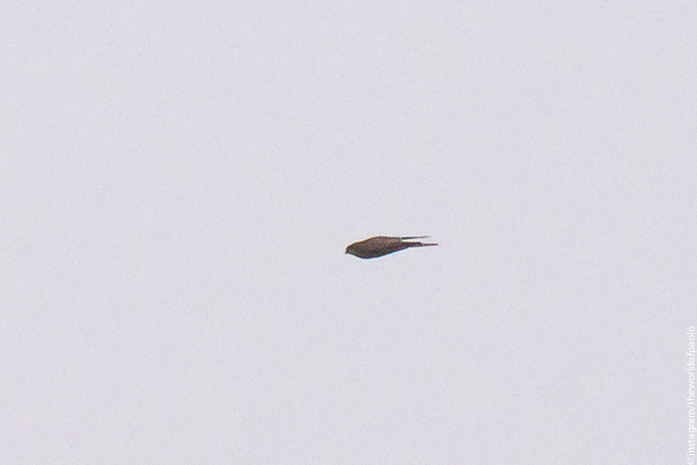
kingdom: Animalia
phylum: Chordata
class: Aves
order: Falconiformes
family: Falconidae
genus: Falco
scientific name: Falco columbarius
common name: Merlin
